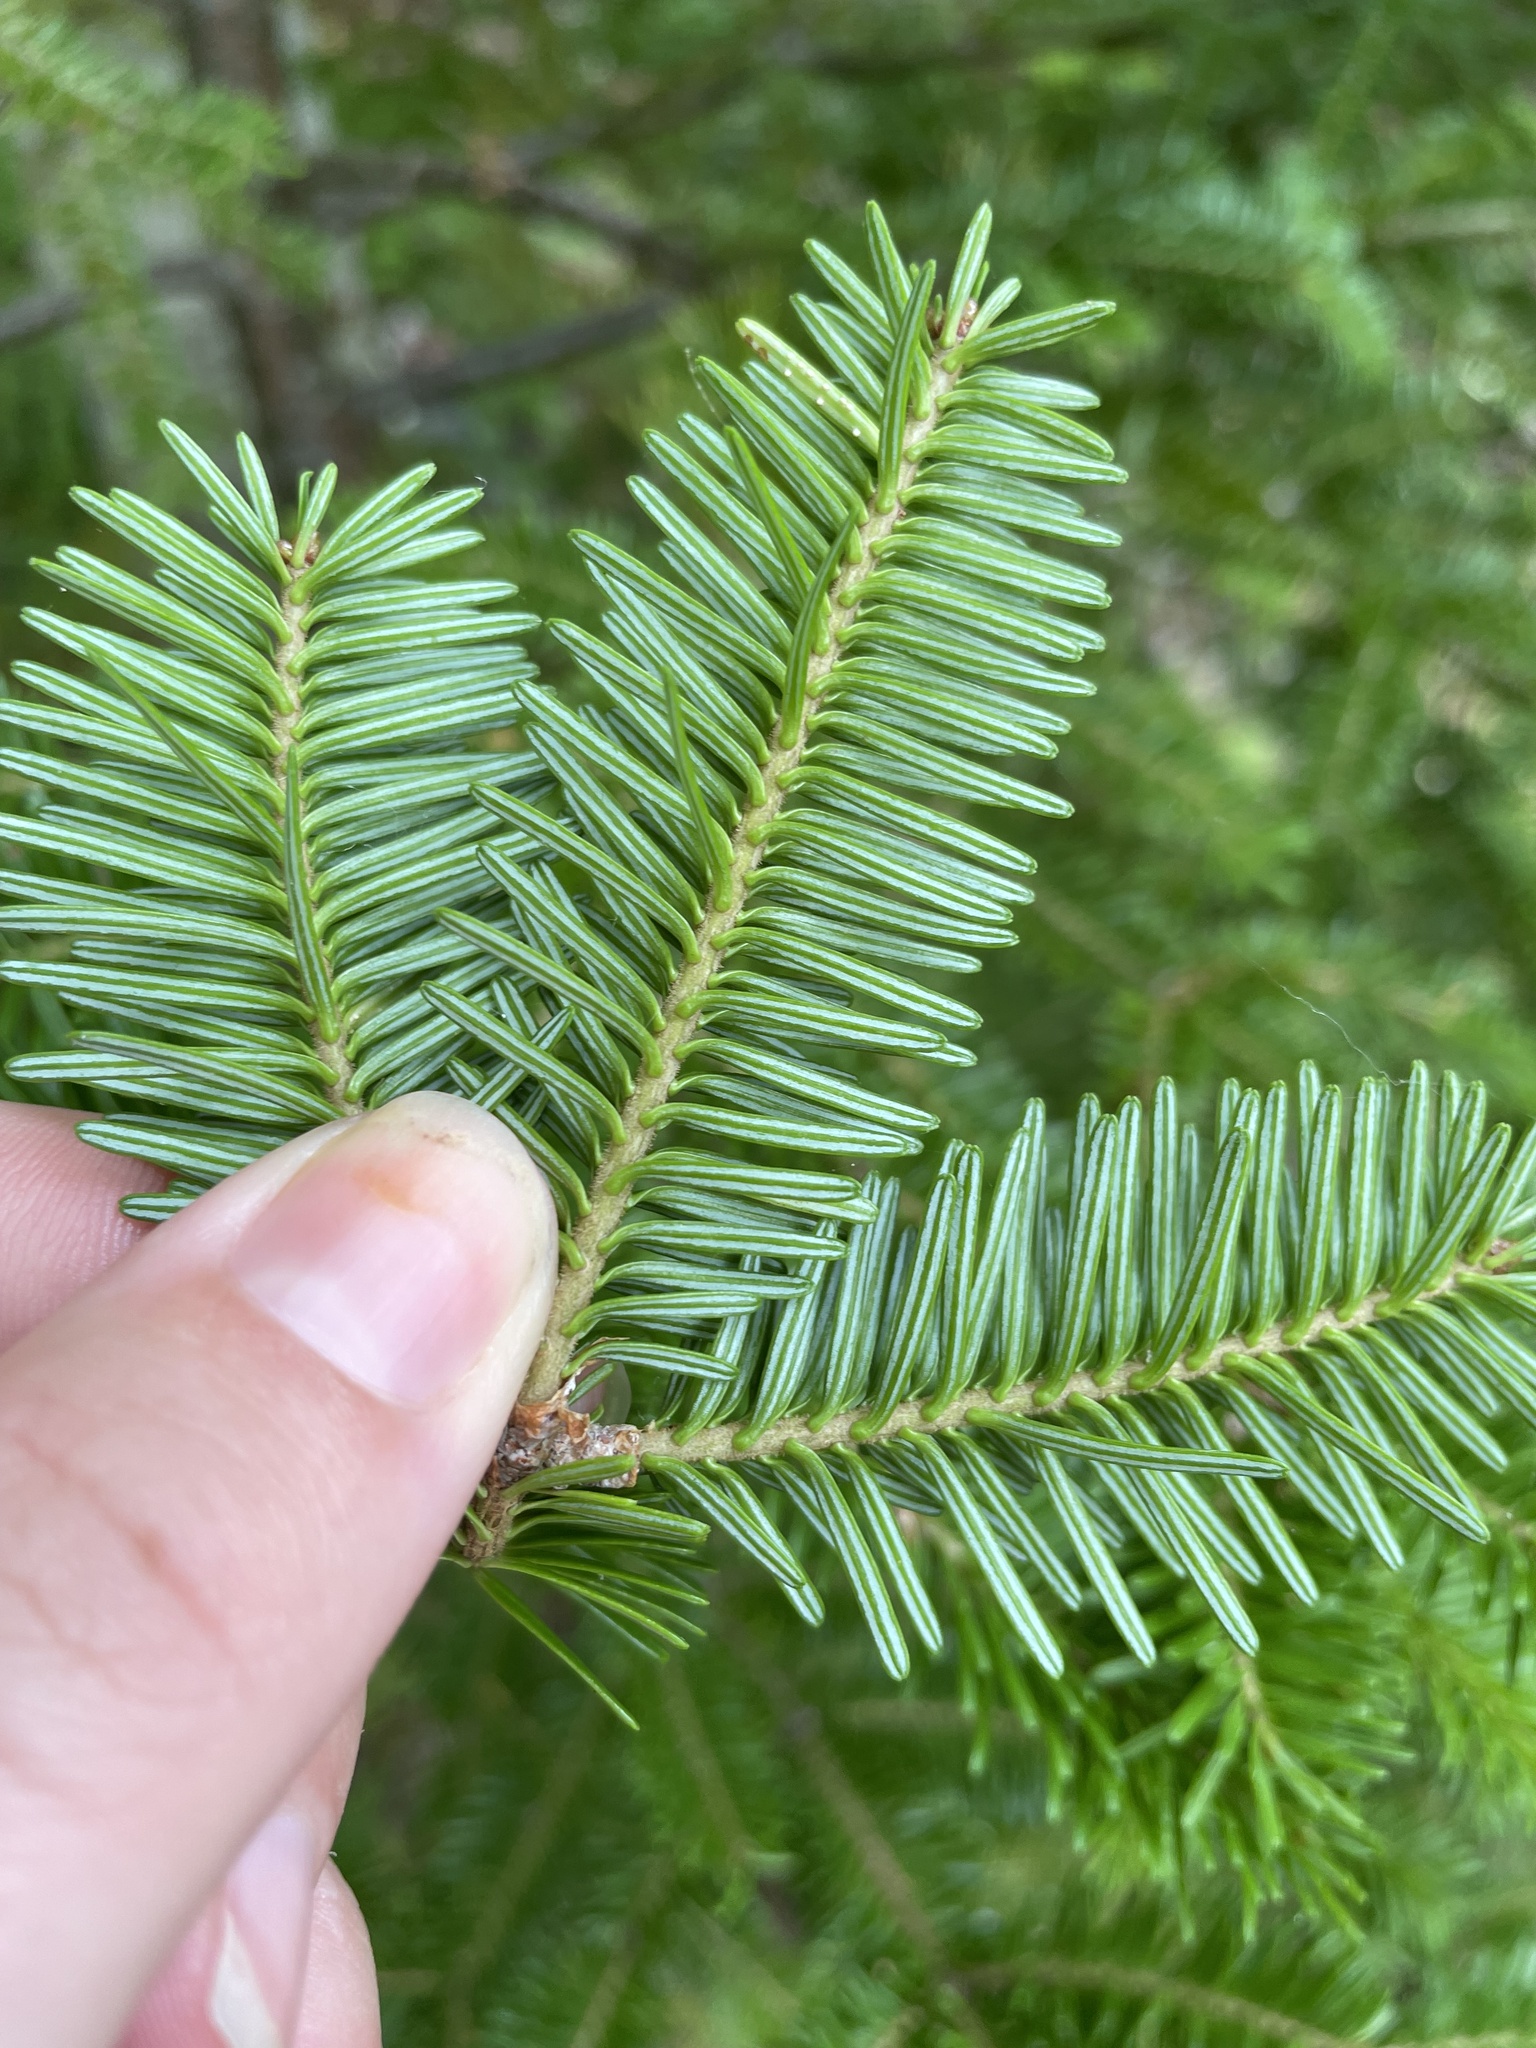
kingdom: Plantae
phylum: Tracheophyta
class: Pinopsida
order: Pinales
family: Pinaceae
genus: Abies
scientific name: Abies balsamea
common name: Balsam fir
